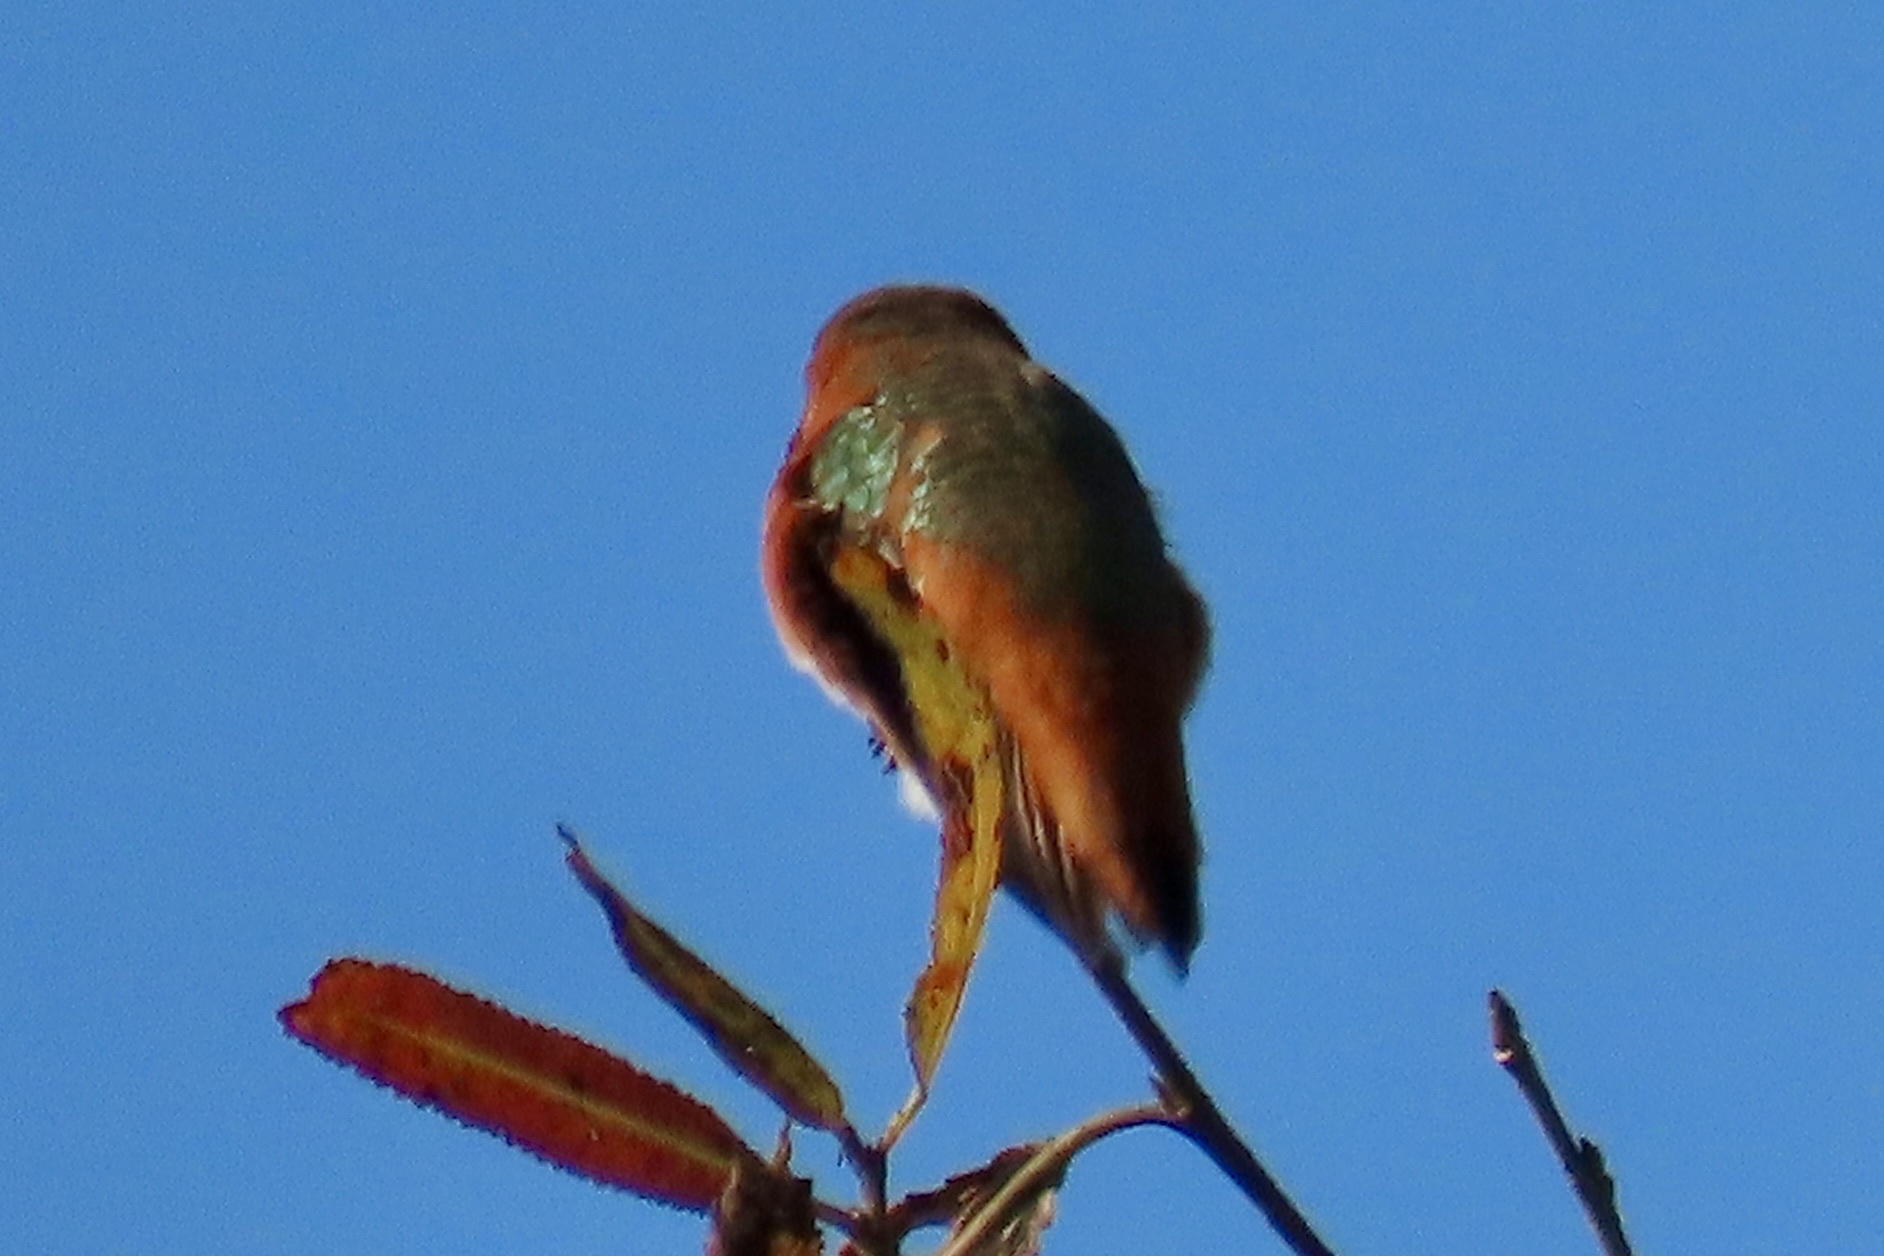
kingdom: Animalia
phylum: Chordata
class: Aves
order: Apodiformes
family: Trochilidae
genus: Selasphorus
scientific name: Selasphorus sasin
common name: Allen's hummingbird
